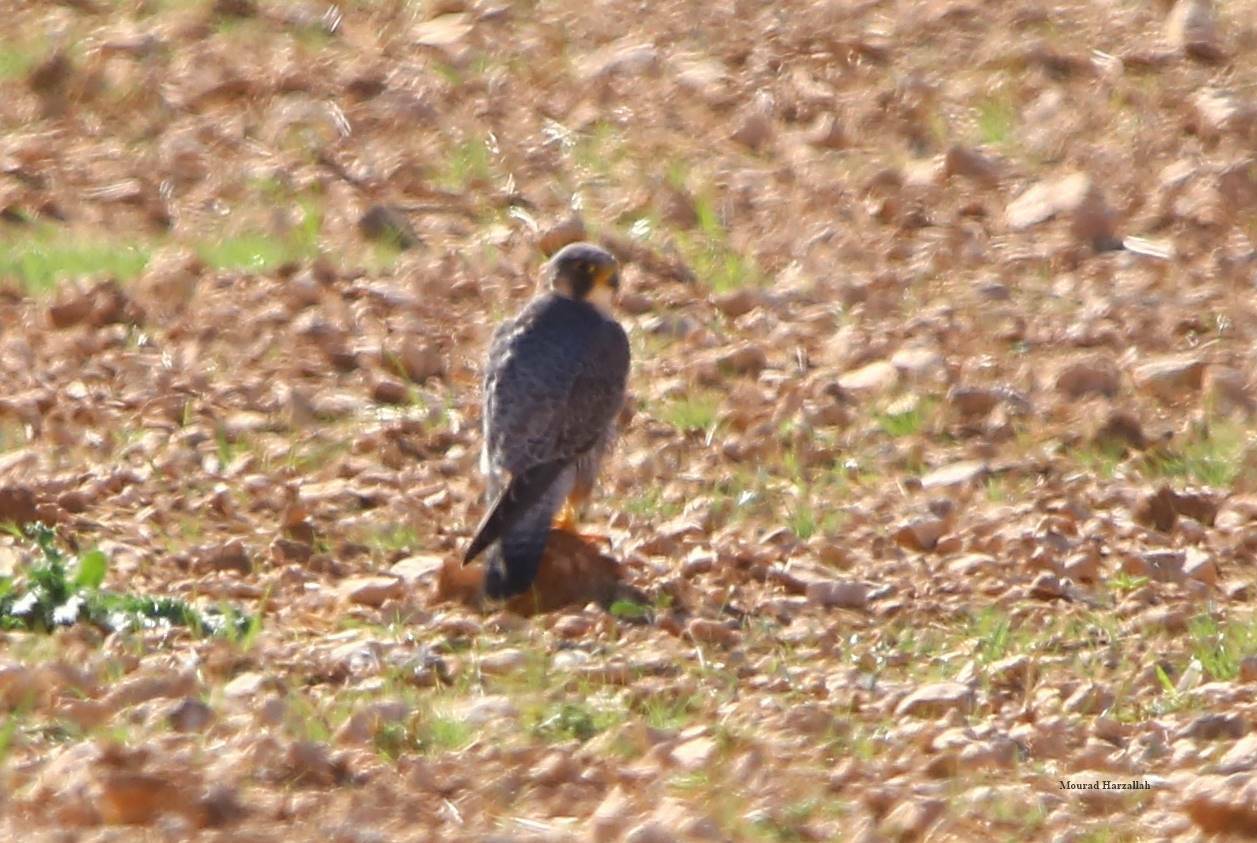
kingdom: Animalia
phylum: Chordata
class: Aves
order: Falconiformes
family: Falconidae
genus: Falco
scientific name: Falco peregrinus
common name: Peregrine falcon
